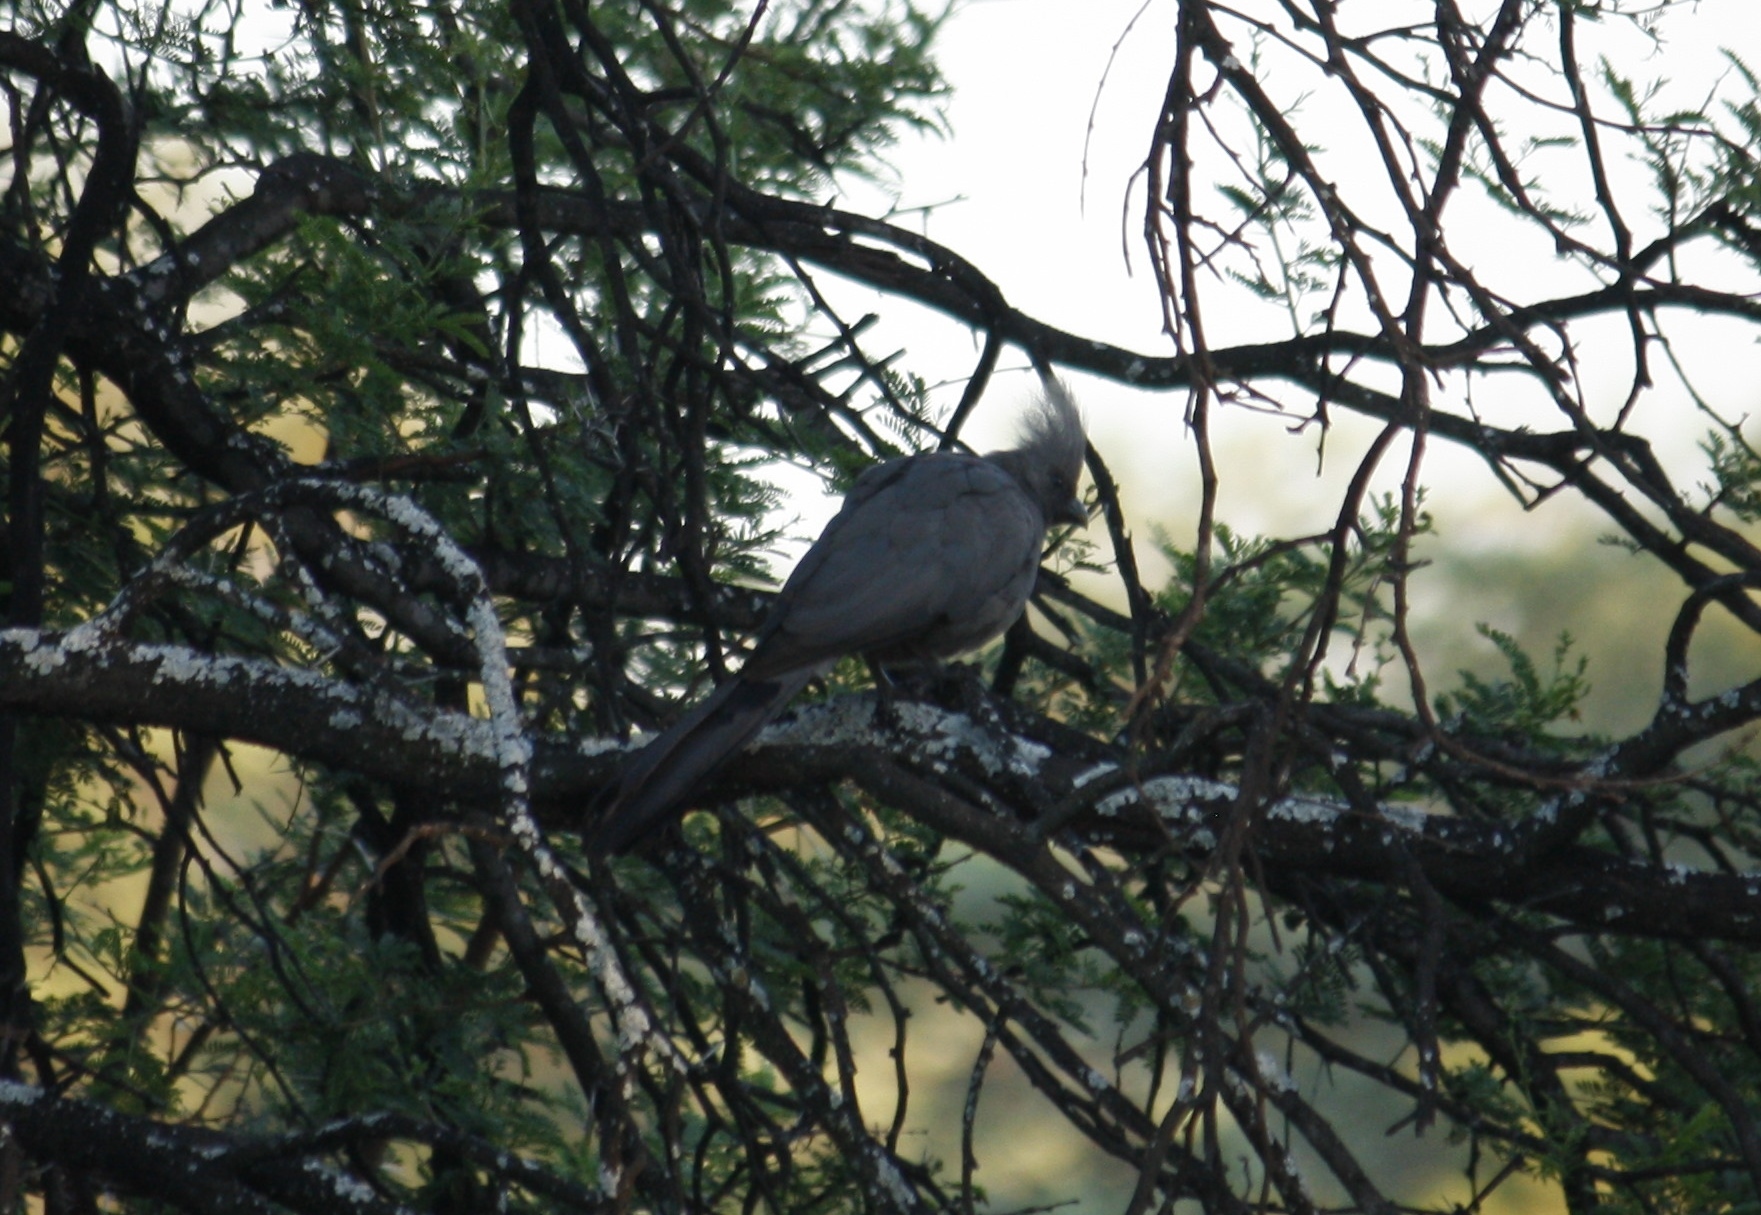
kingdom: Animalia
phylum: Chordata
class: Aves
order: Musophagiformes
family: Musophagidae
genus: Corythaixoides
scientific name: Corythaixoides concolor
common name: Grey go-away-bird
